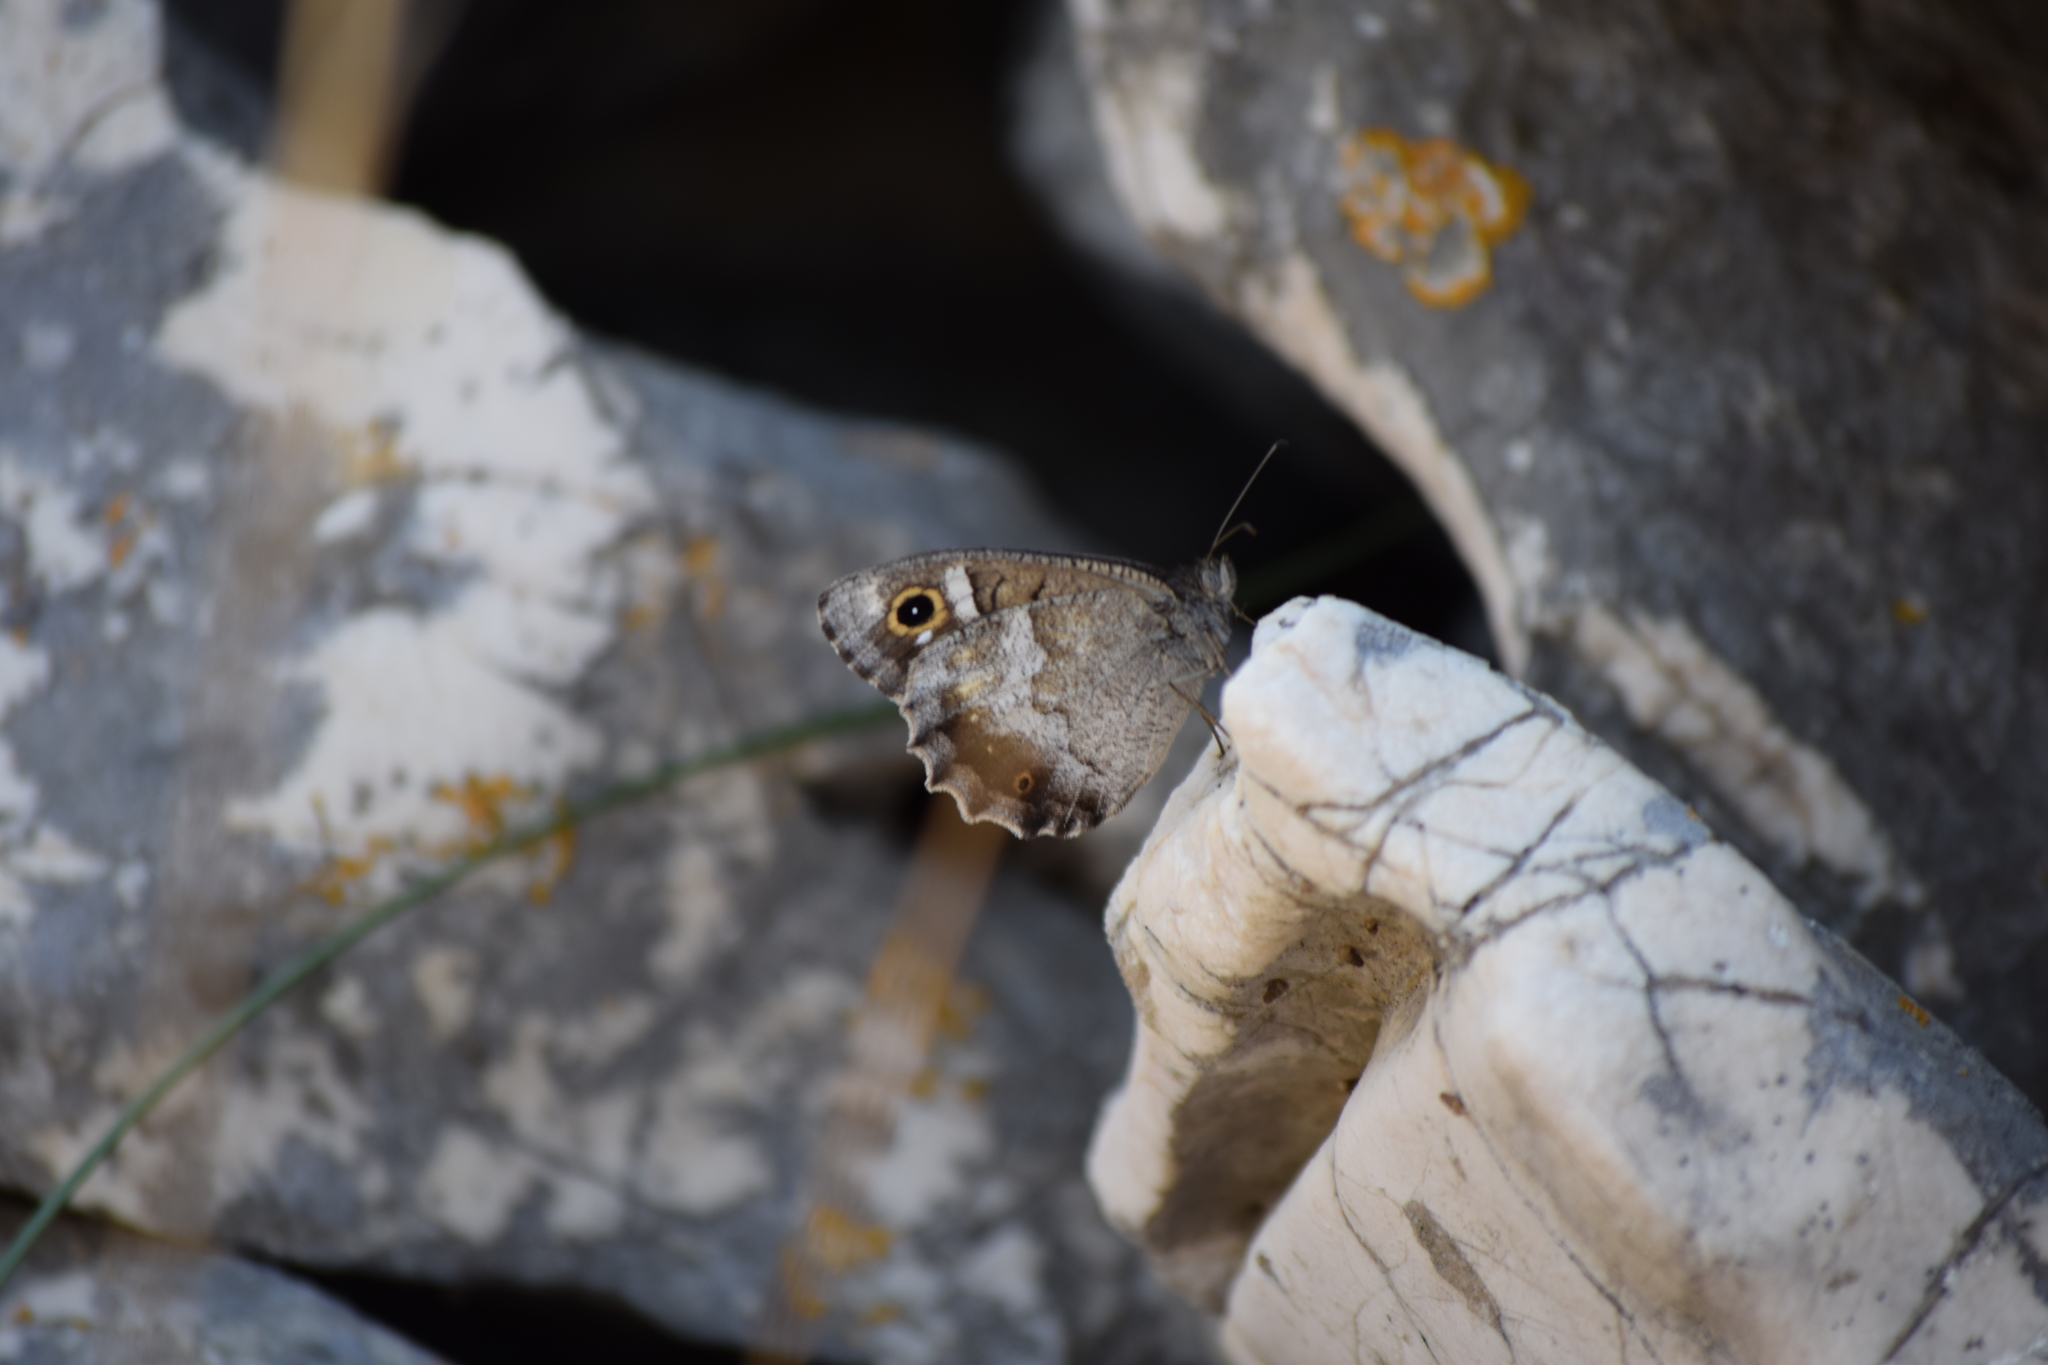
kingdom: Animalia
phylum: Arthropoda
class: Insecta
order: Lepidoptera
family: Nymphalidae
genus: Hipparchia
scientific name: Hipparchia statilinus
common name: Tree grayling
